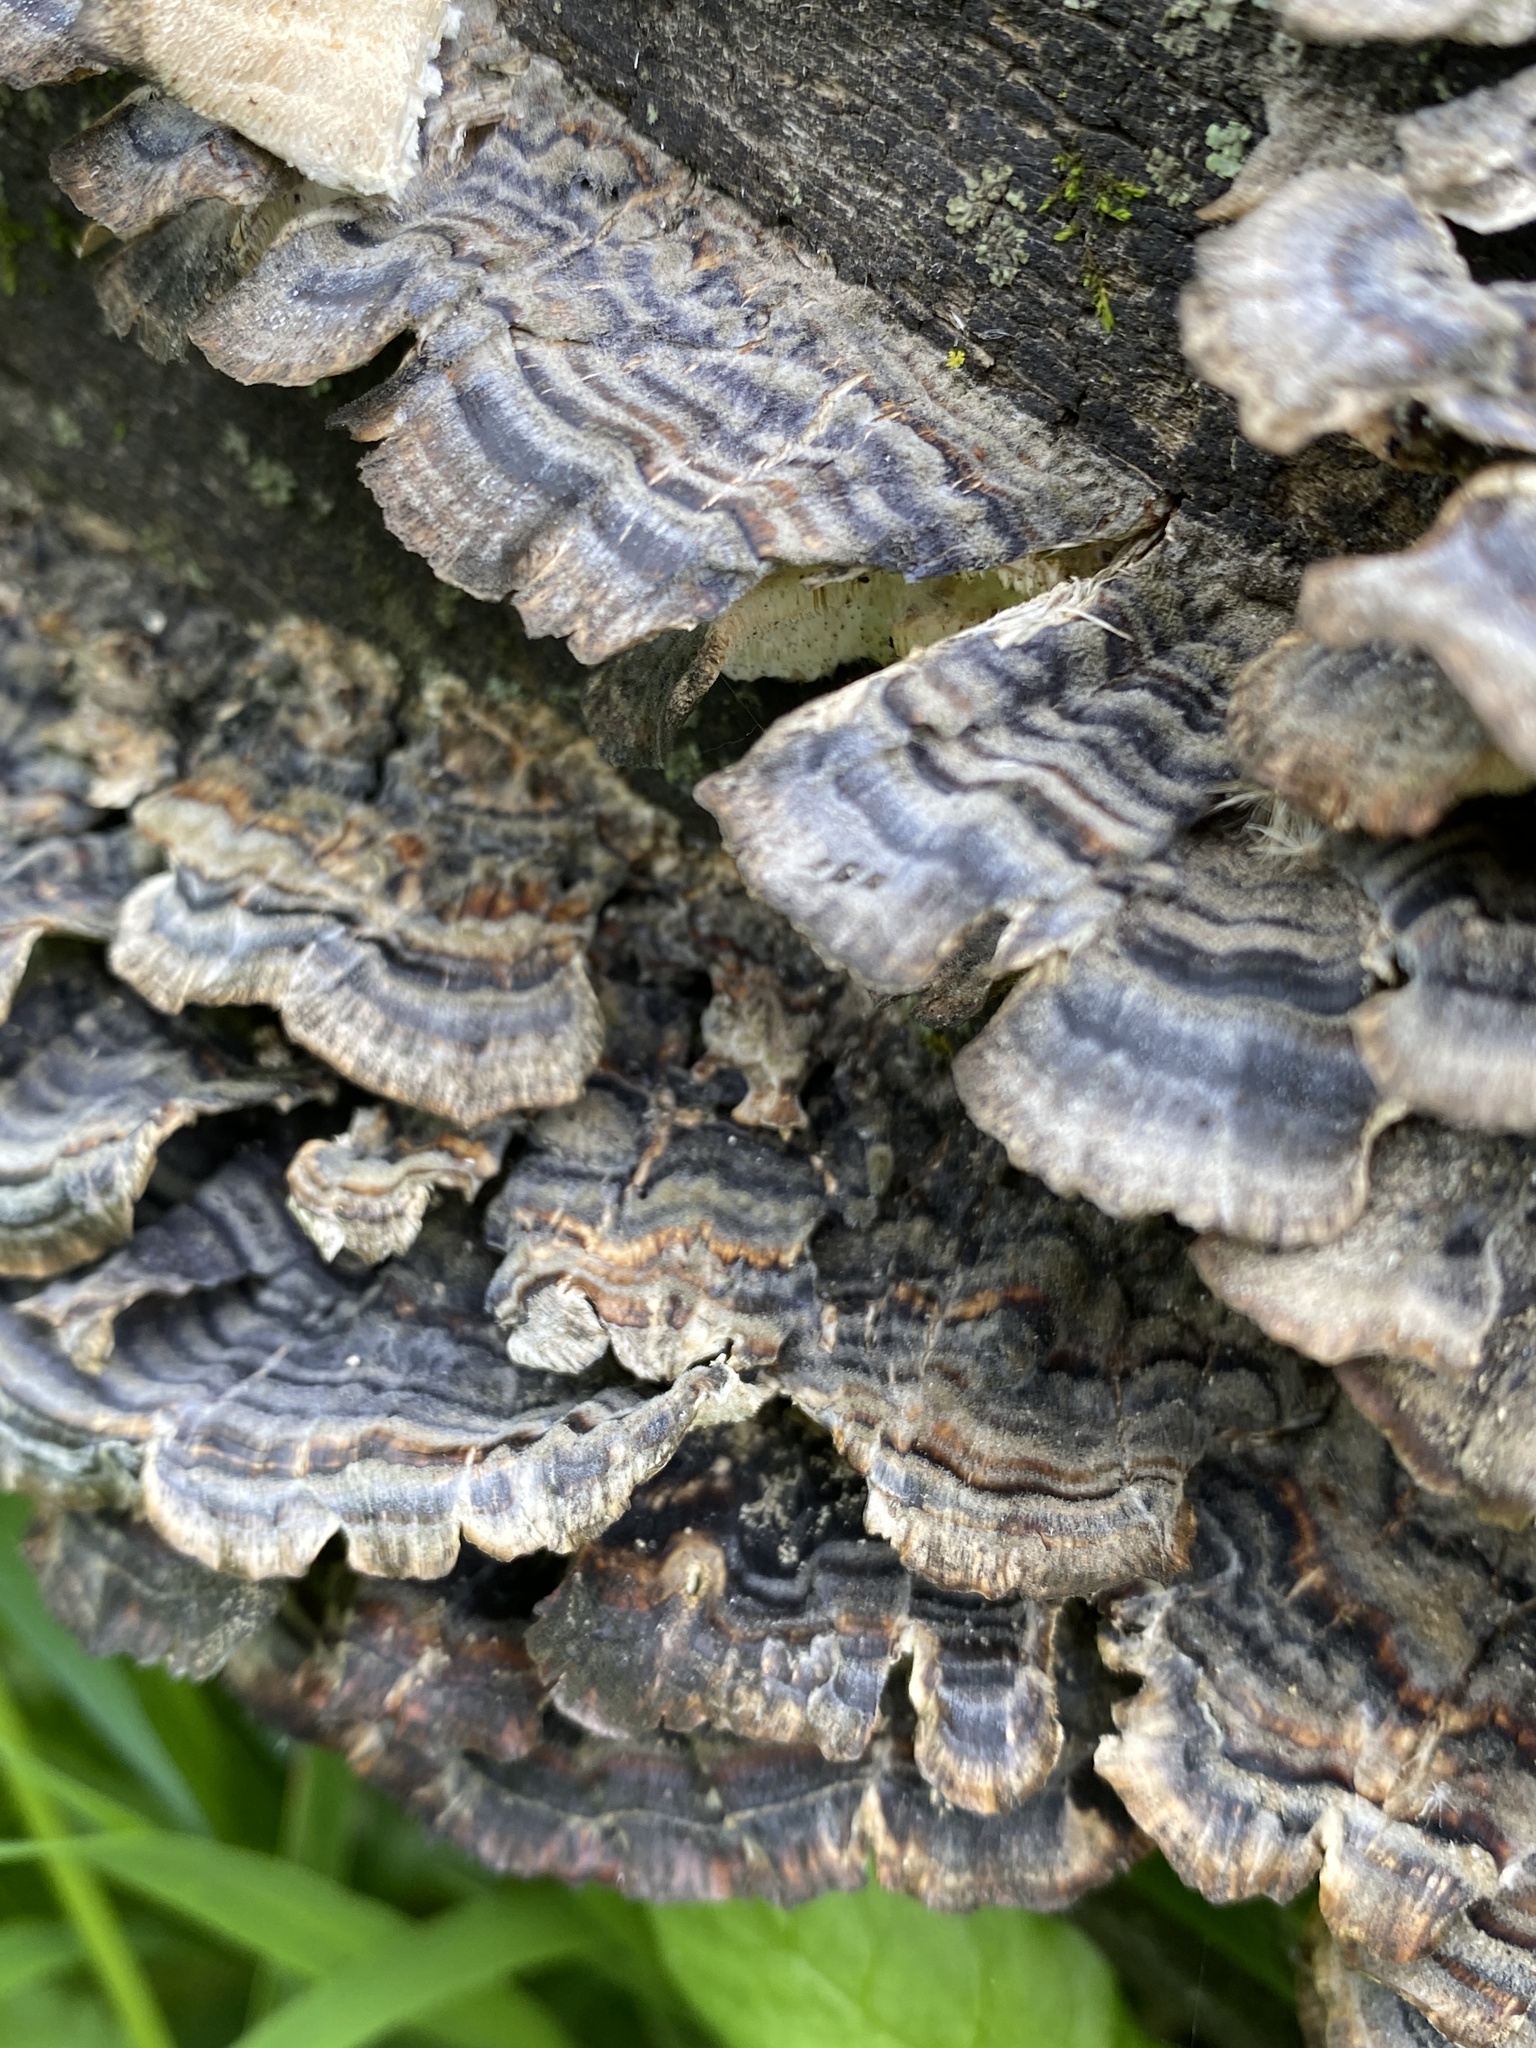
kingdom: Fungi
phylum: Basidiomycota
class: Agaricomycetes
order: Polyporales
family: Polyporaceae
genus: Trametes
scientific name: Trametes versicolor
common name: Turkeytail
